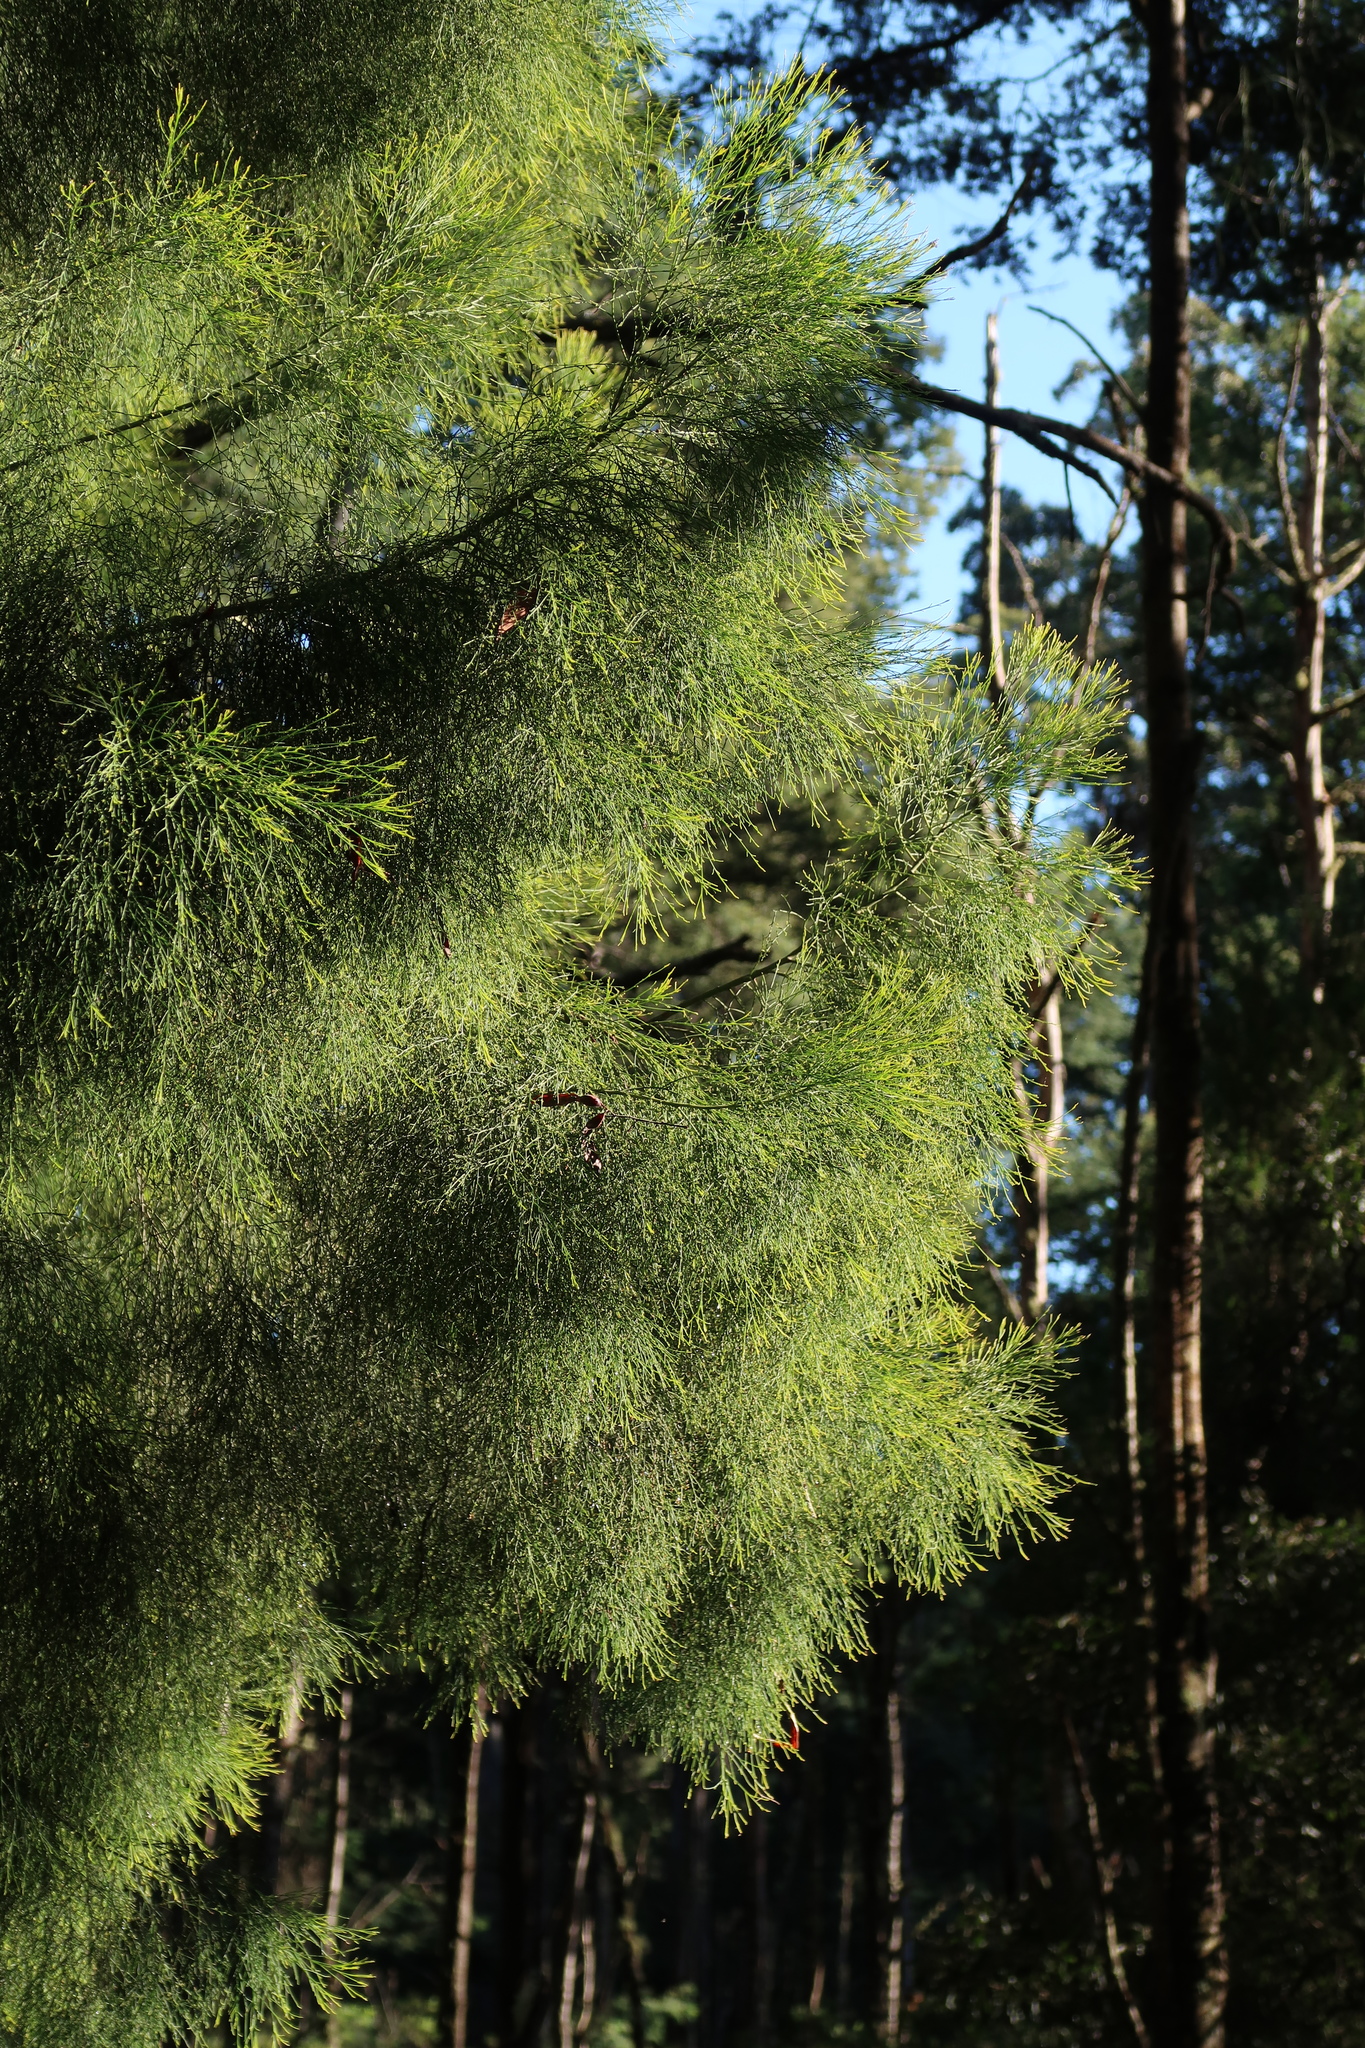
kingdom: Plantae
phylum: Tracheophyta
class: Magnoliopsida
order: Santalales
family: Santalaceae
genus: Exocarpos
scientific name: Exocarpos cupressiformis
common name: Cherry ballart
